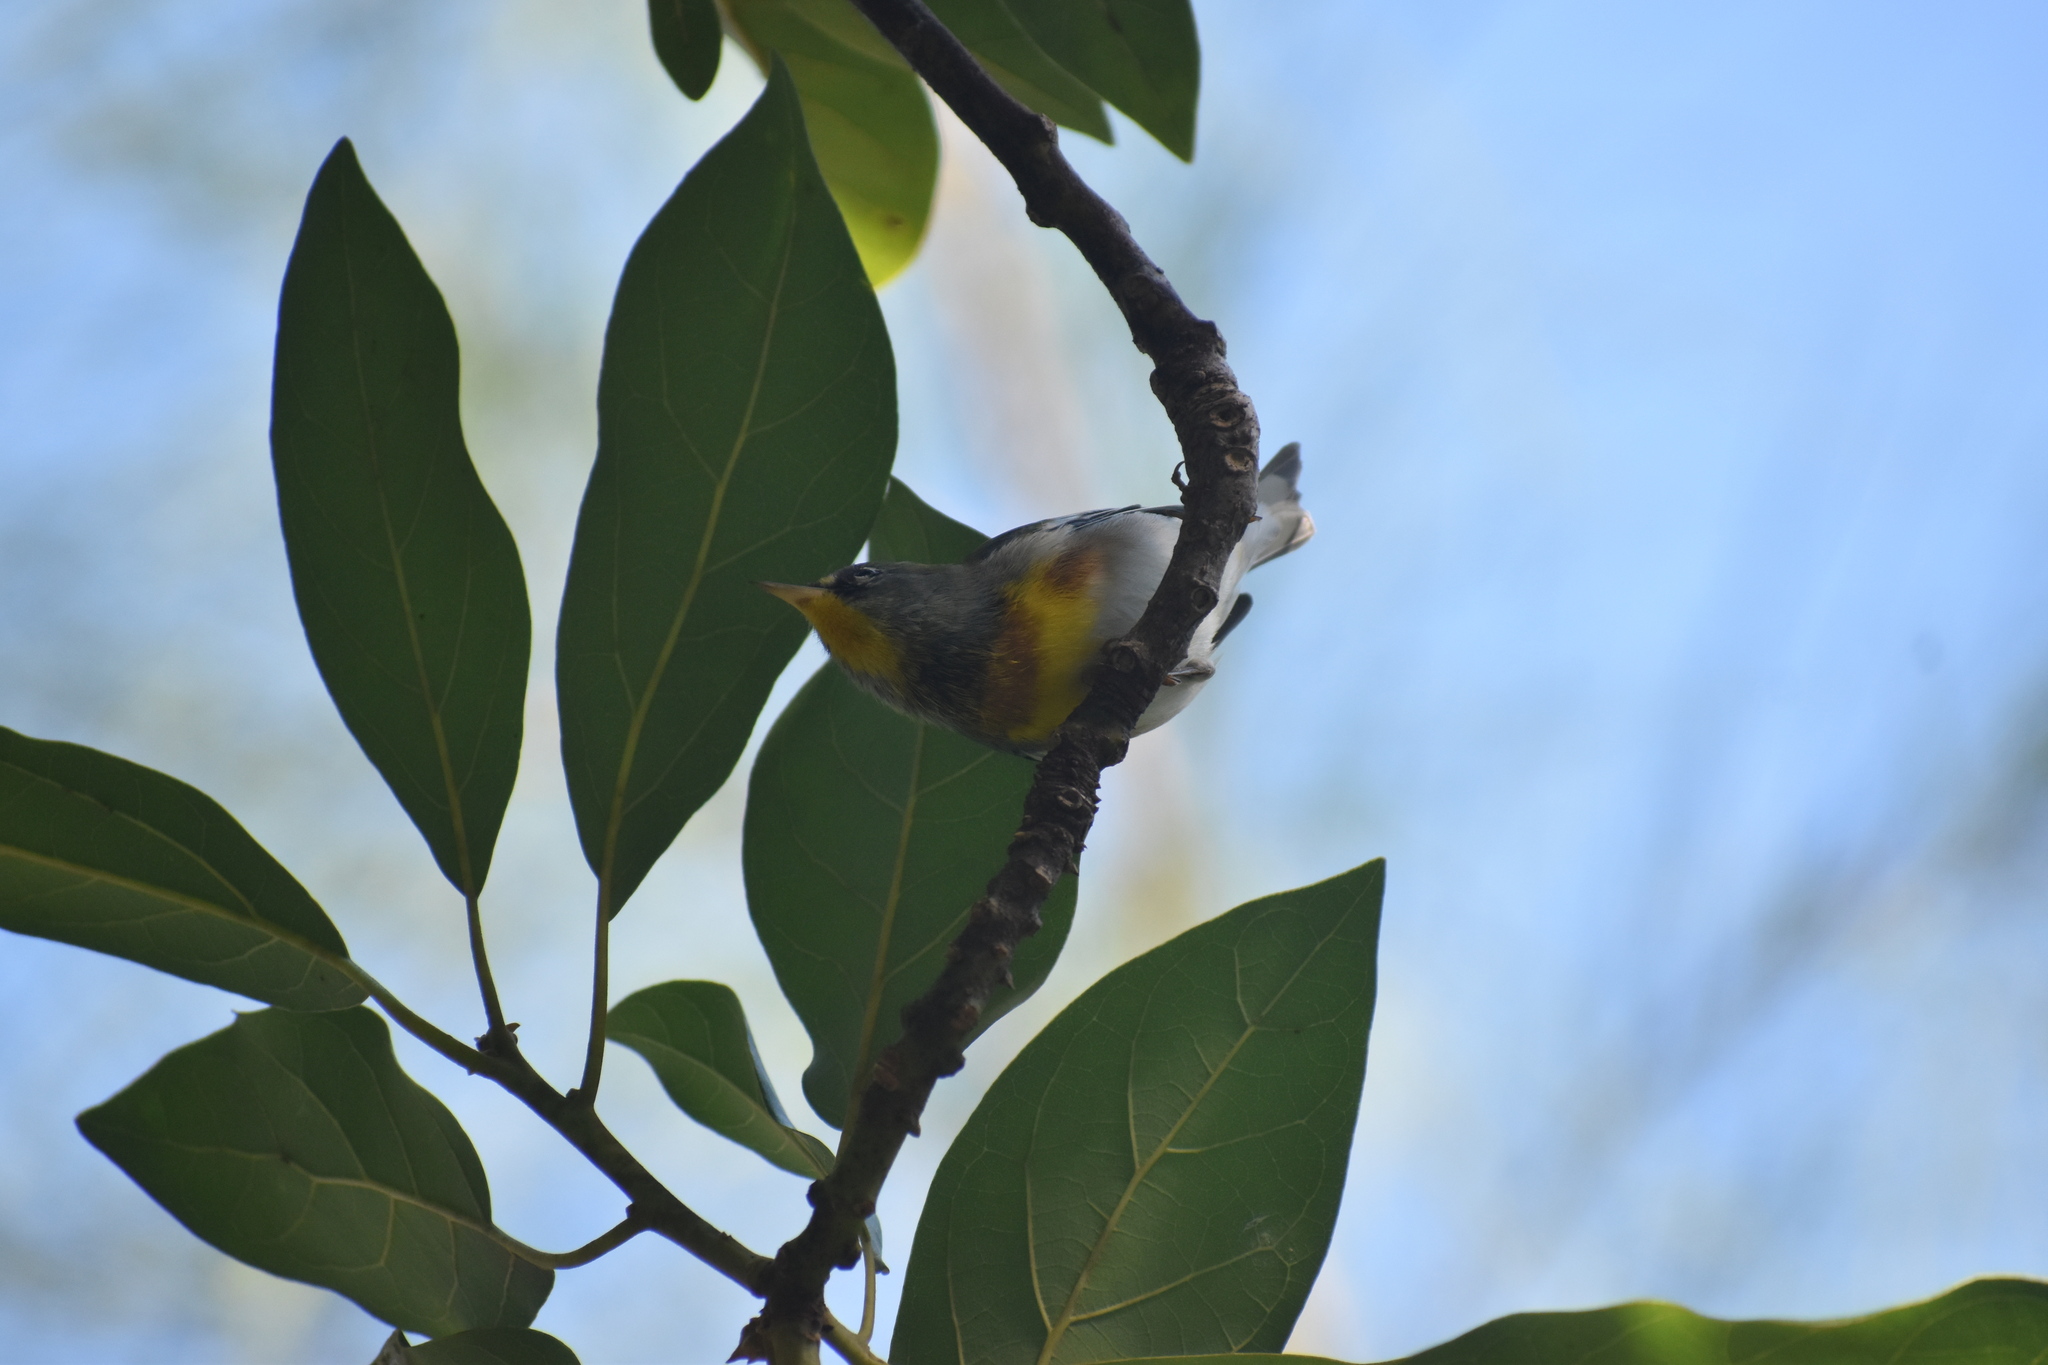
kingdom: Animalia
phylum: Chordata
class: Aves
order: Passeriformes
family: Parulidae
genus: Setophaga
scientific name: Setophaga americana
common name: Northern parula
